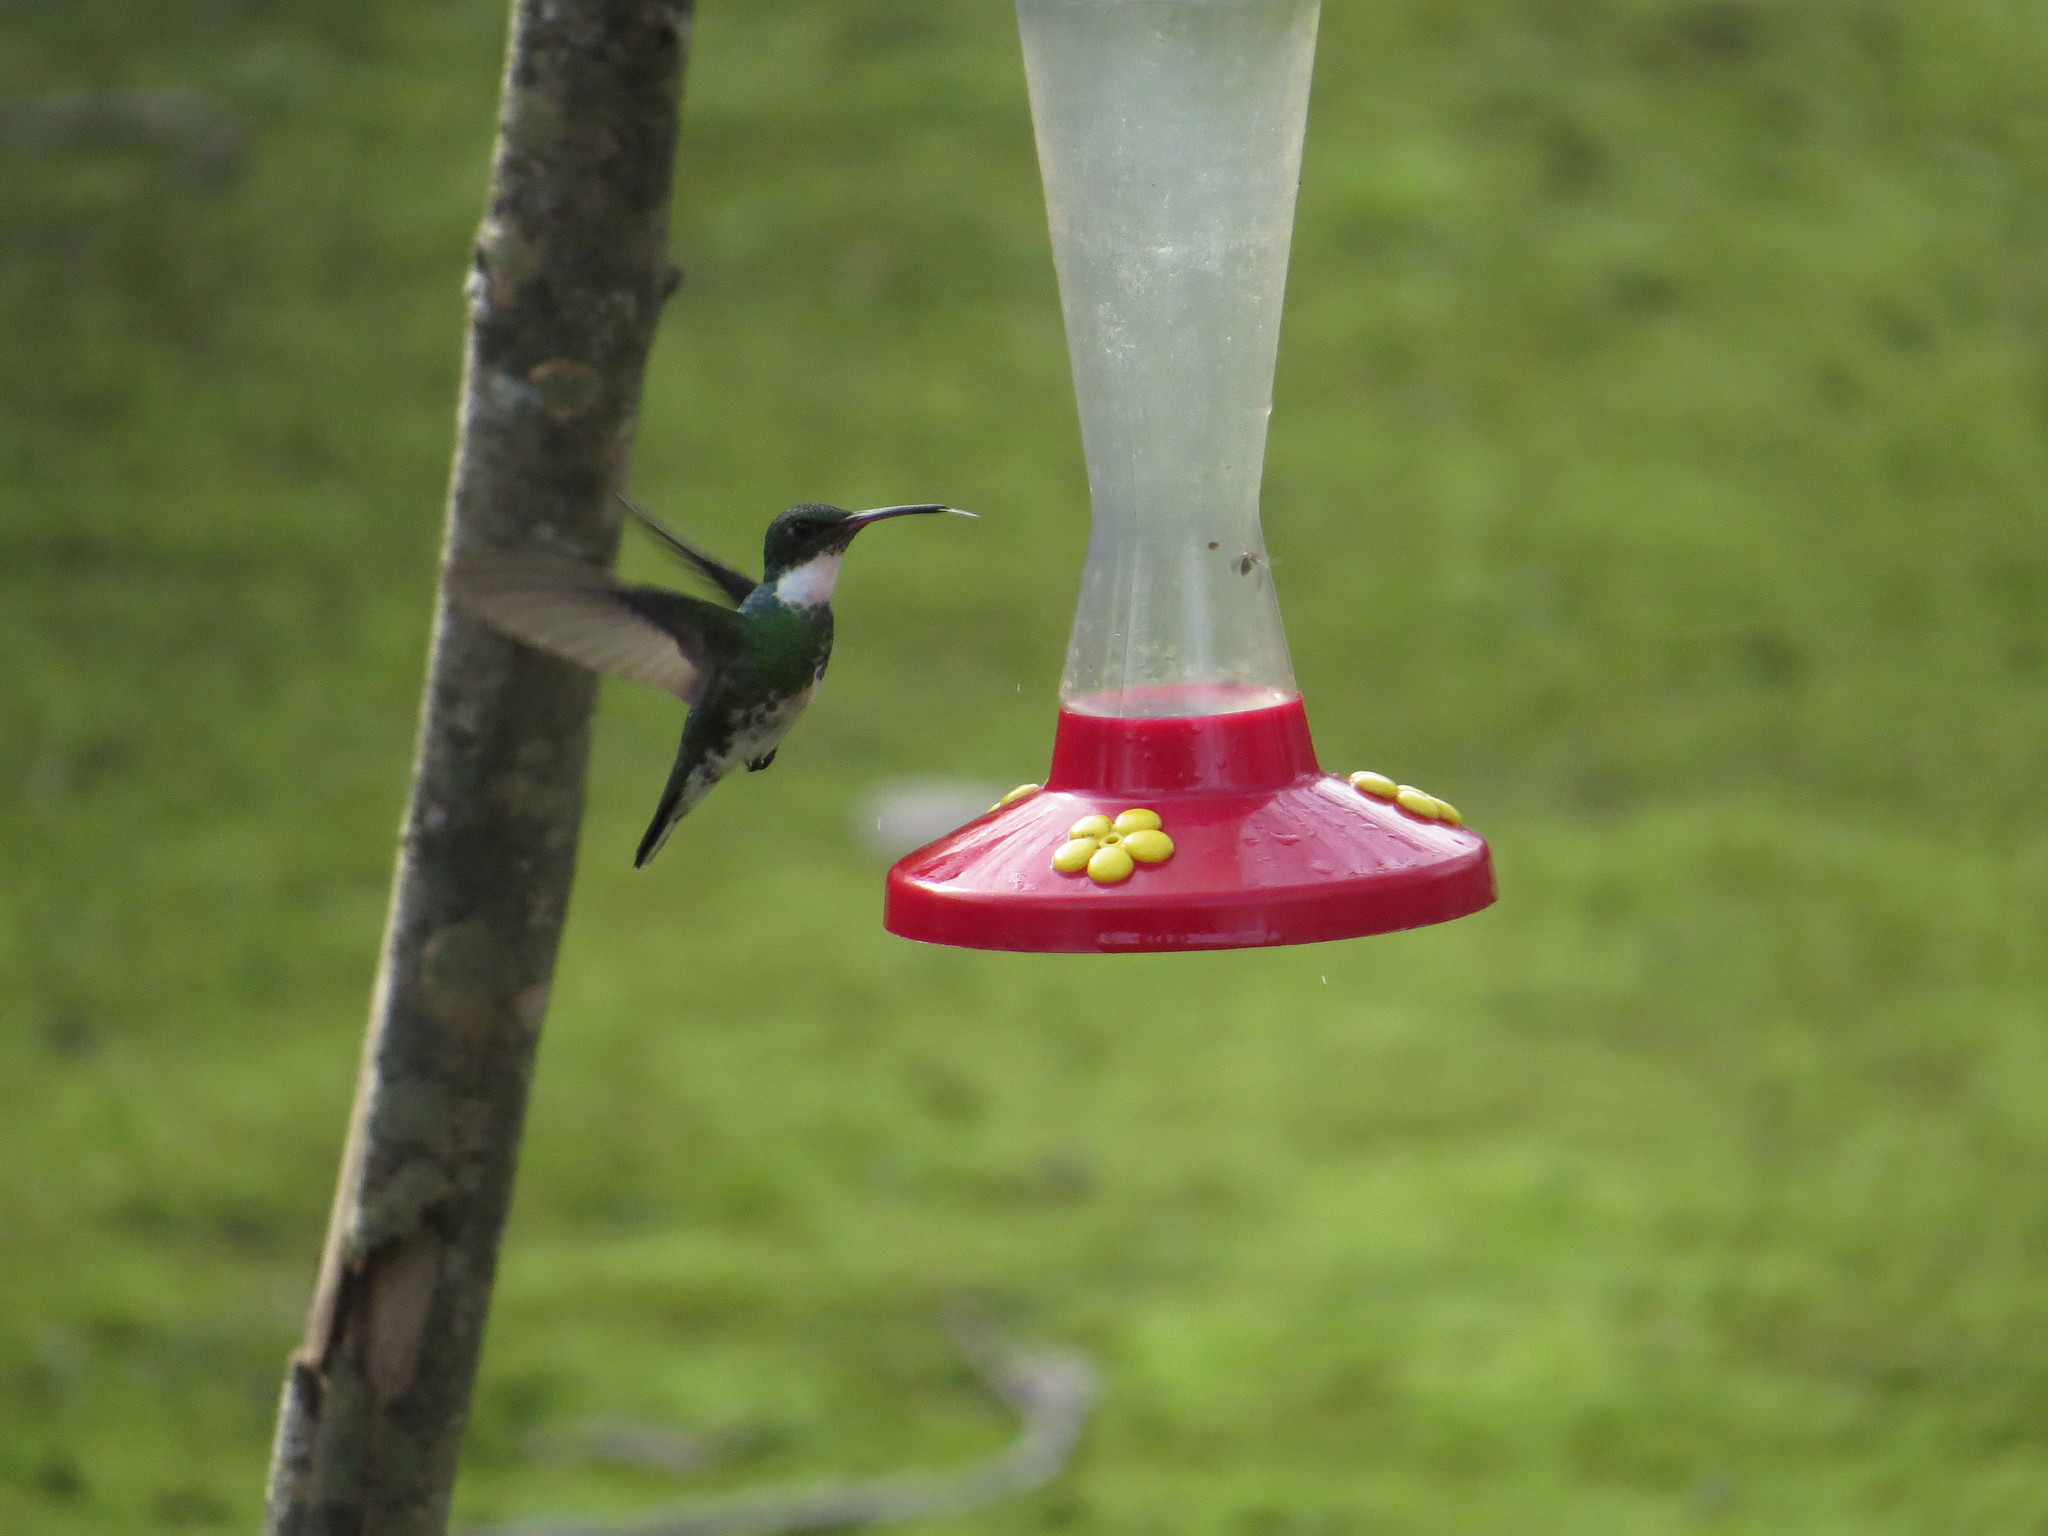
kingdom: Animalia
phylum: Chordata
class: Aves
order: Apodiformes
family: Trochilidae
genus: Leucochloris
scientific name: Leucochloris albicollis
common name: White-throated hummingbird
